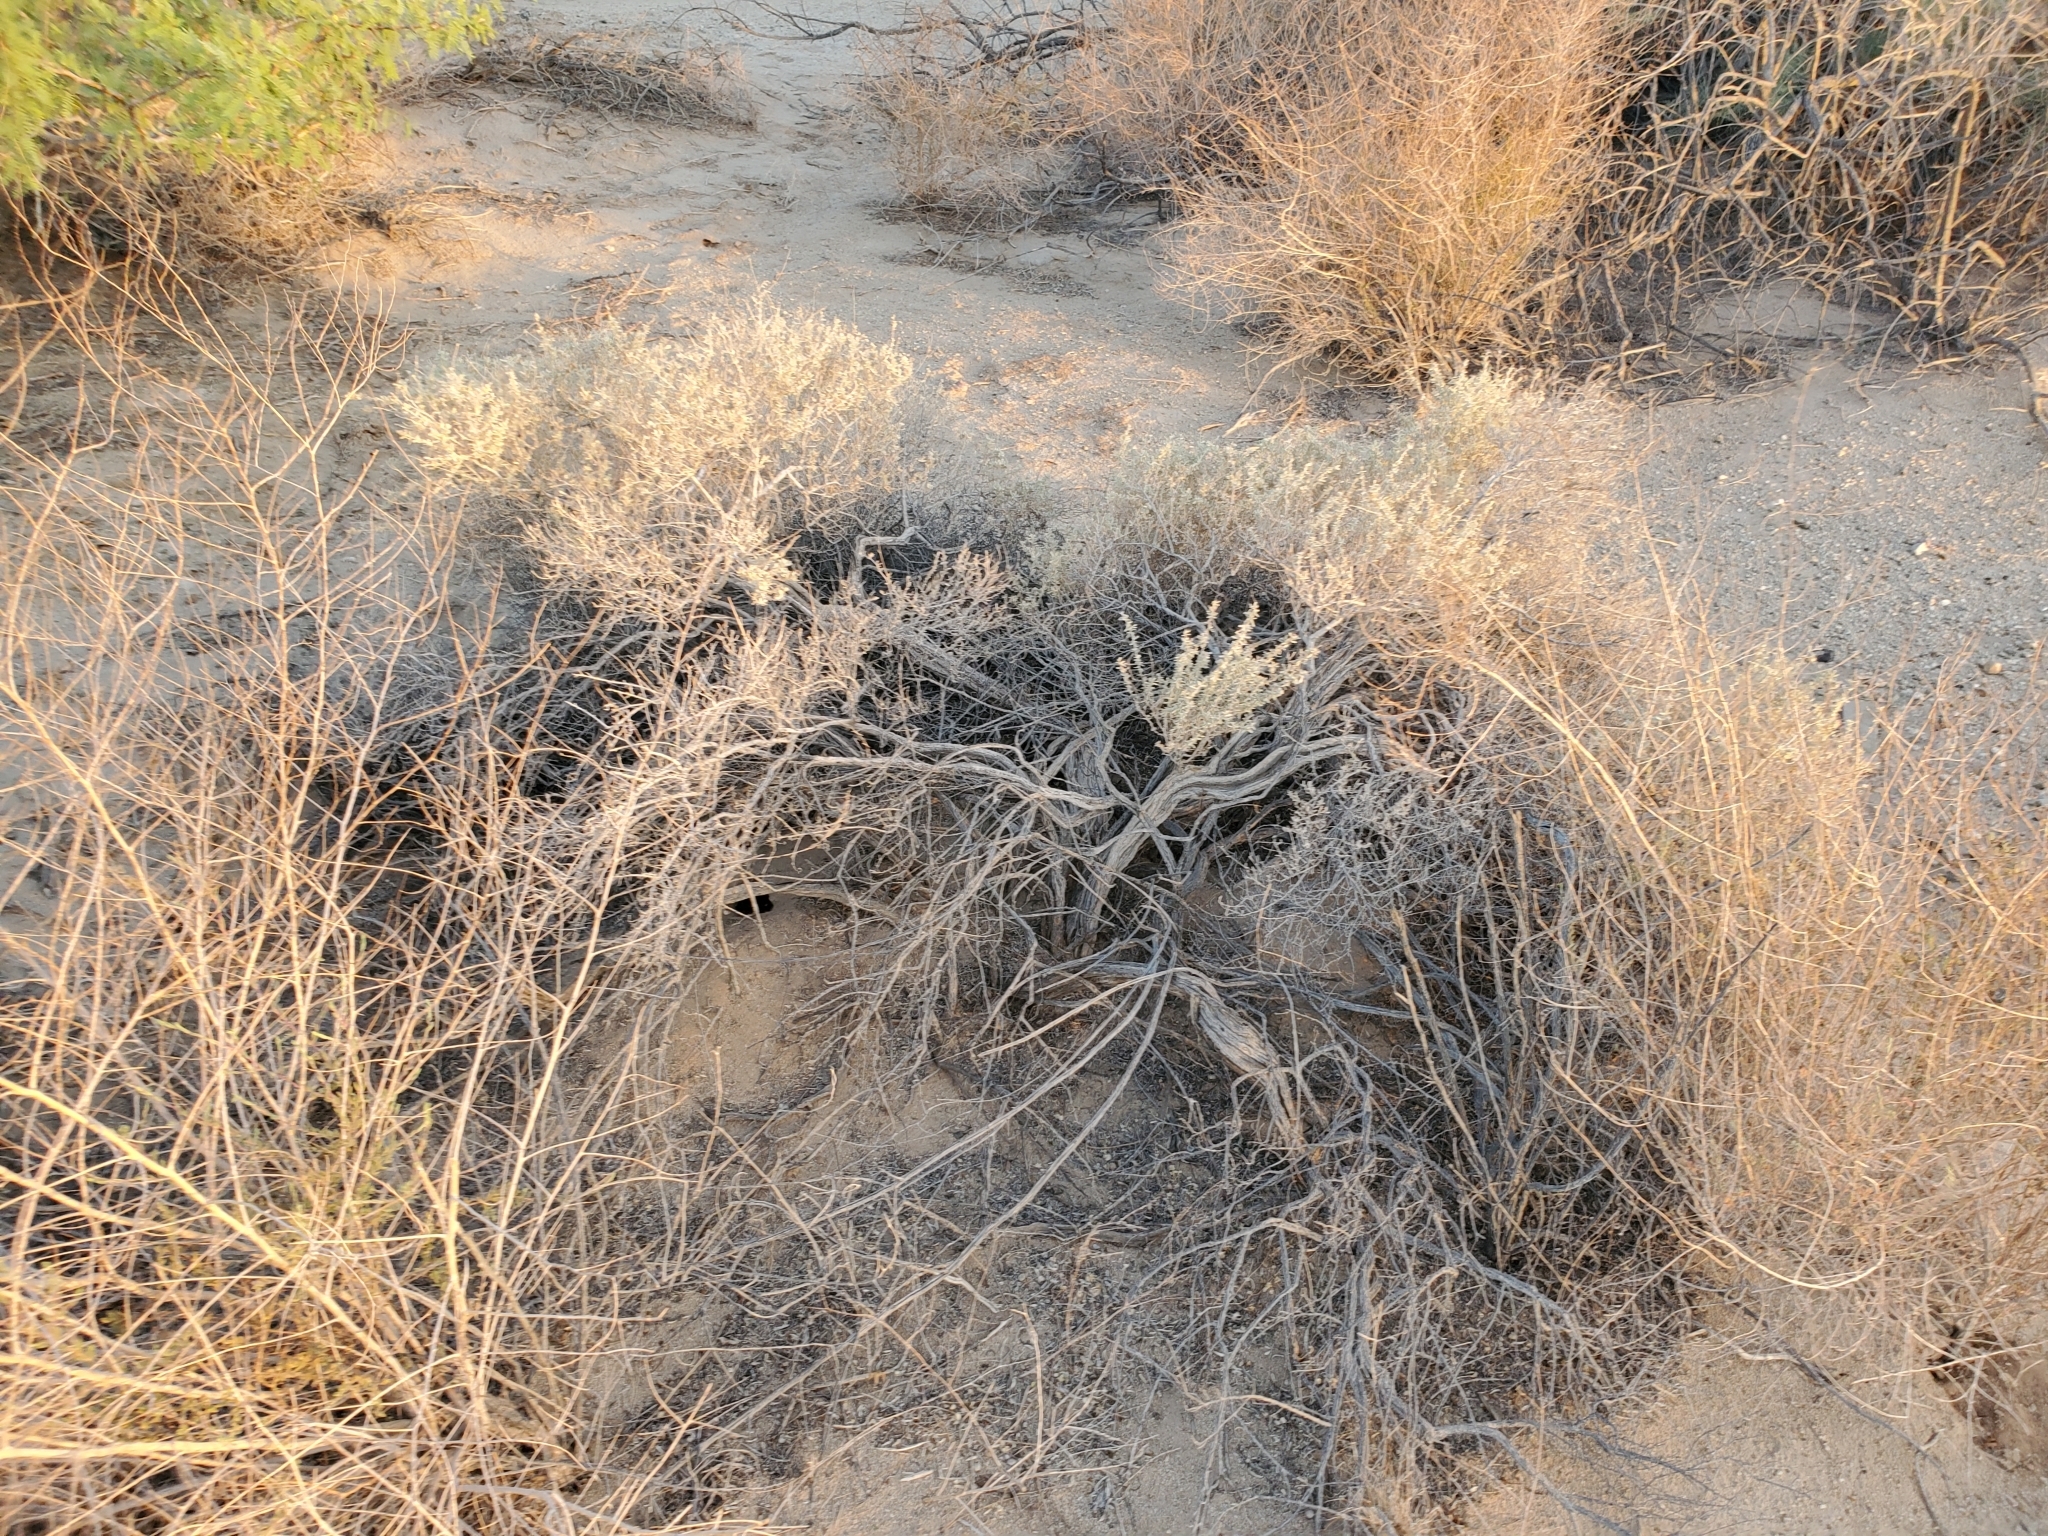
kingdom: Plantae
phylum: Tracheophyta
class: Magnoliopsida
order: Caryophyllales
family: Amaranthaceae
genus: Atriplex
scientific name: Atriplex canescens
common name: Four-wing saltbush
